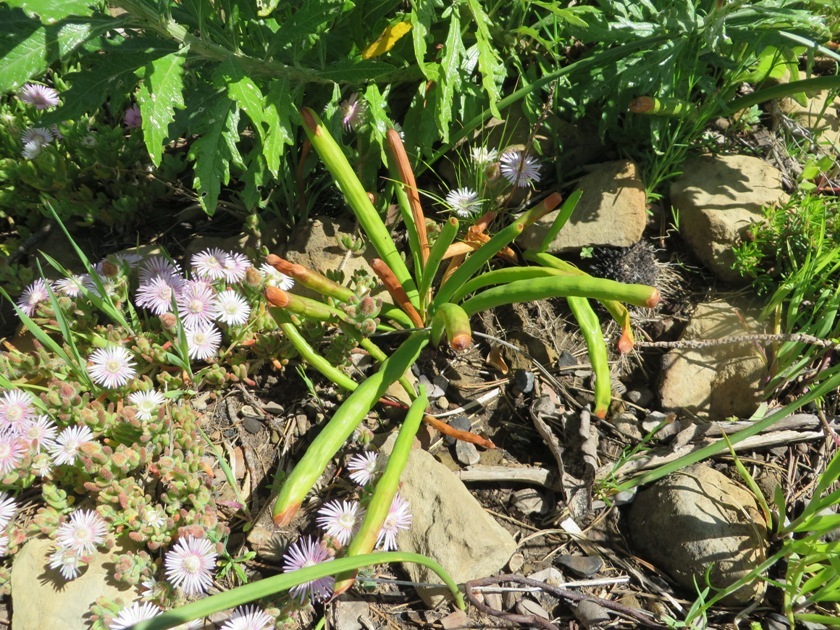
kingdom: Plantae
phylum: Tracheophyta
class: Liliopsida
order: Asparagales
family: Iridaceae
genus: Micranthus
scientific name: Micranthus tubulosus
